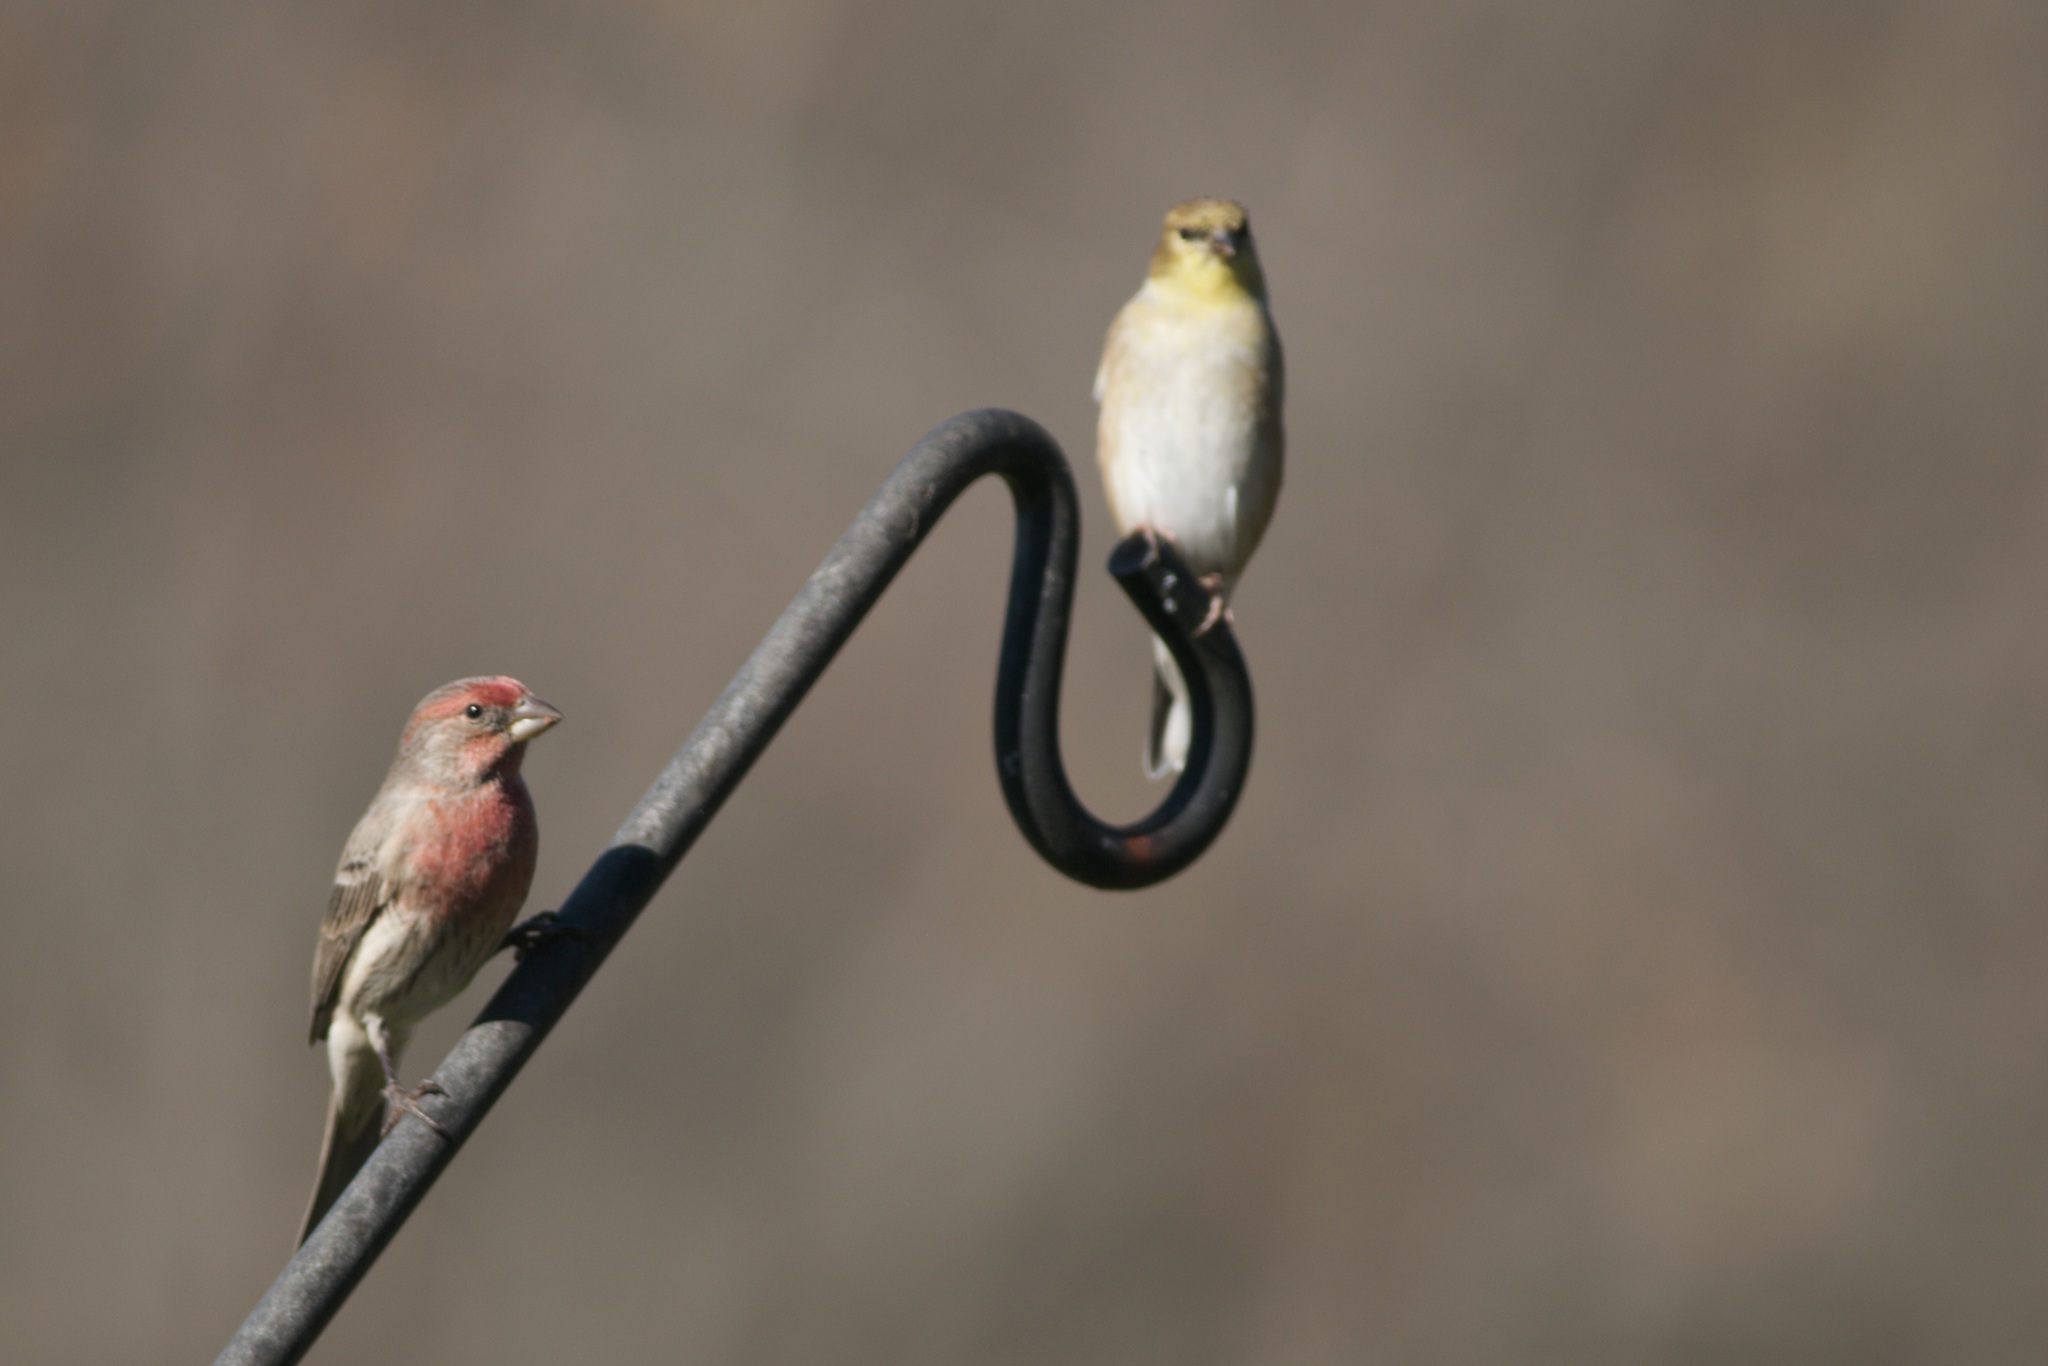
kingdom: Animalia
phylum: Chordata
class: Aves
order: Passeriformes
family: Fringillidae
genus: Haemorhous
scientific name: Haemorhous mexicanus
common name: House finch
